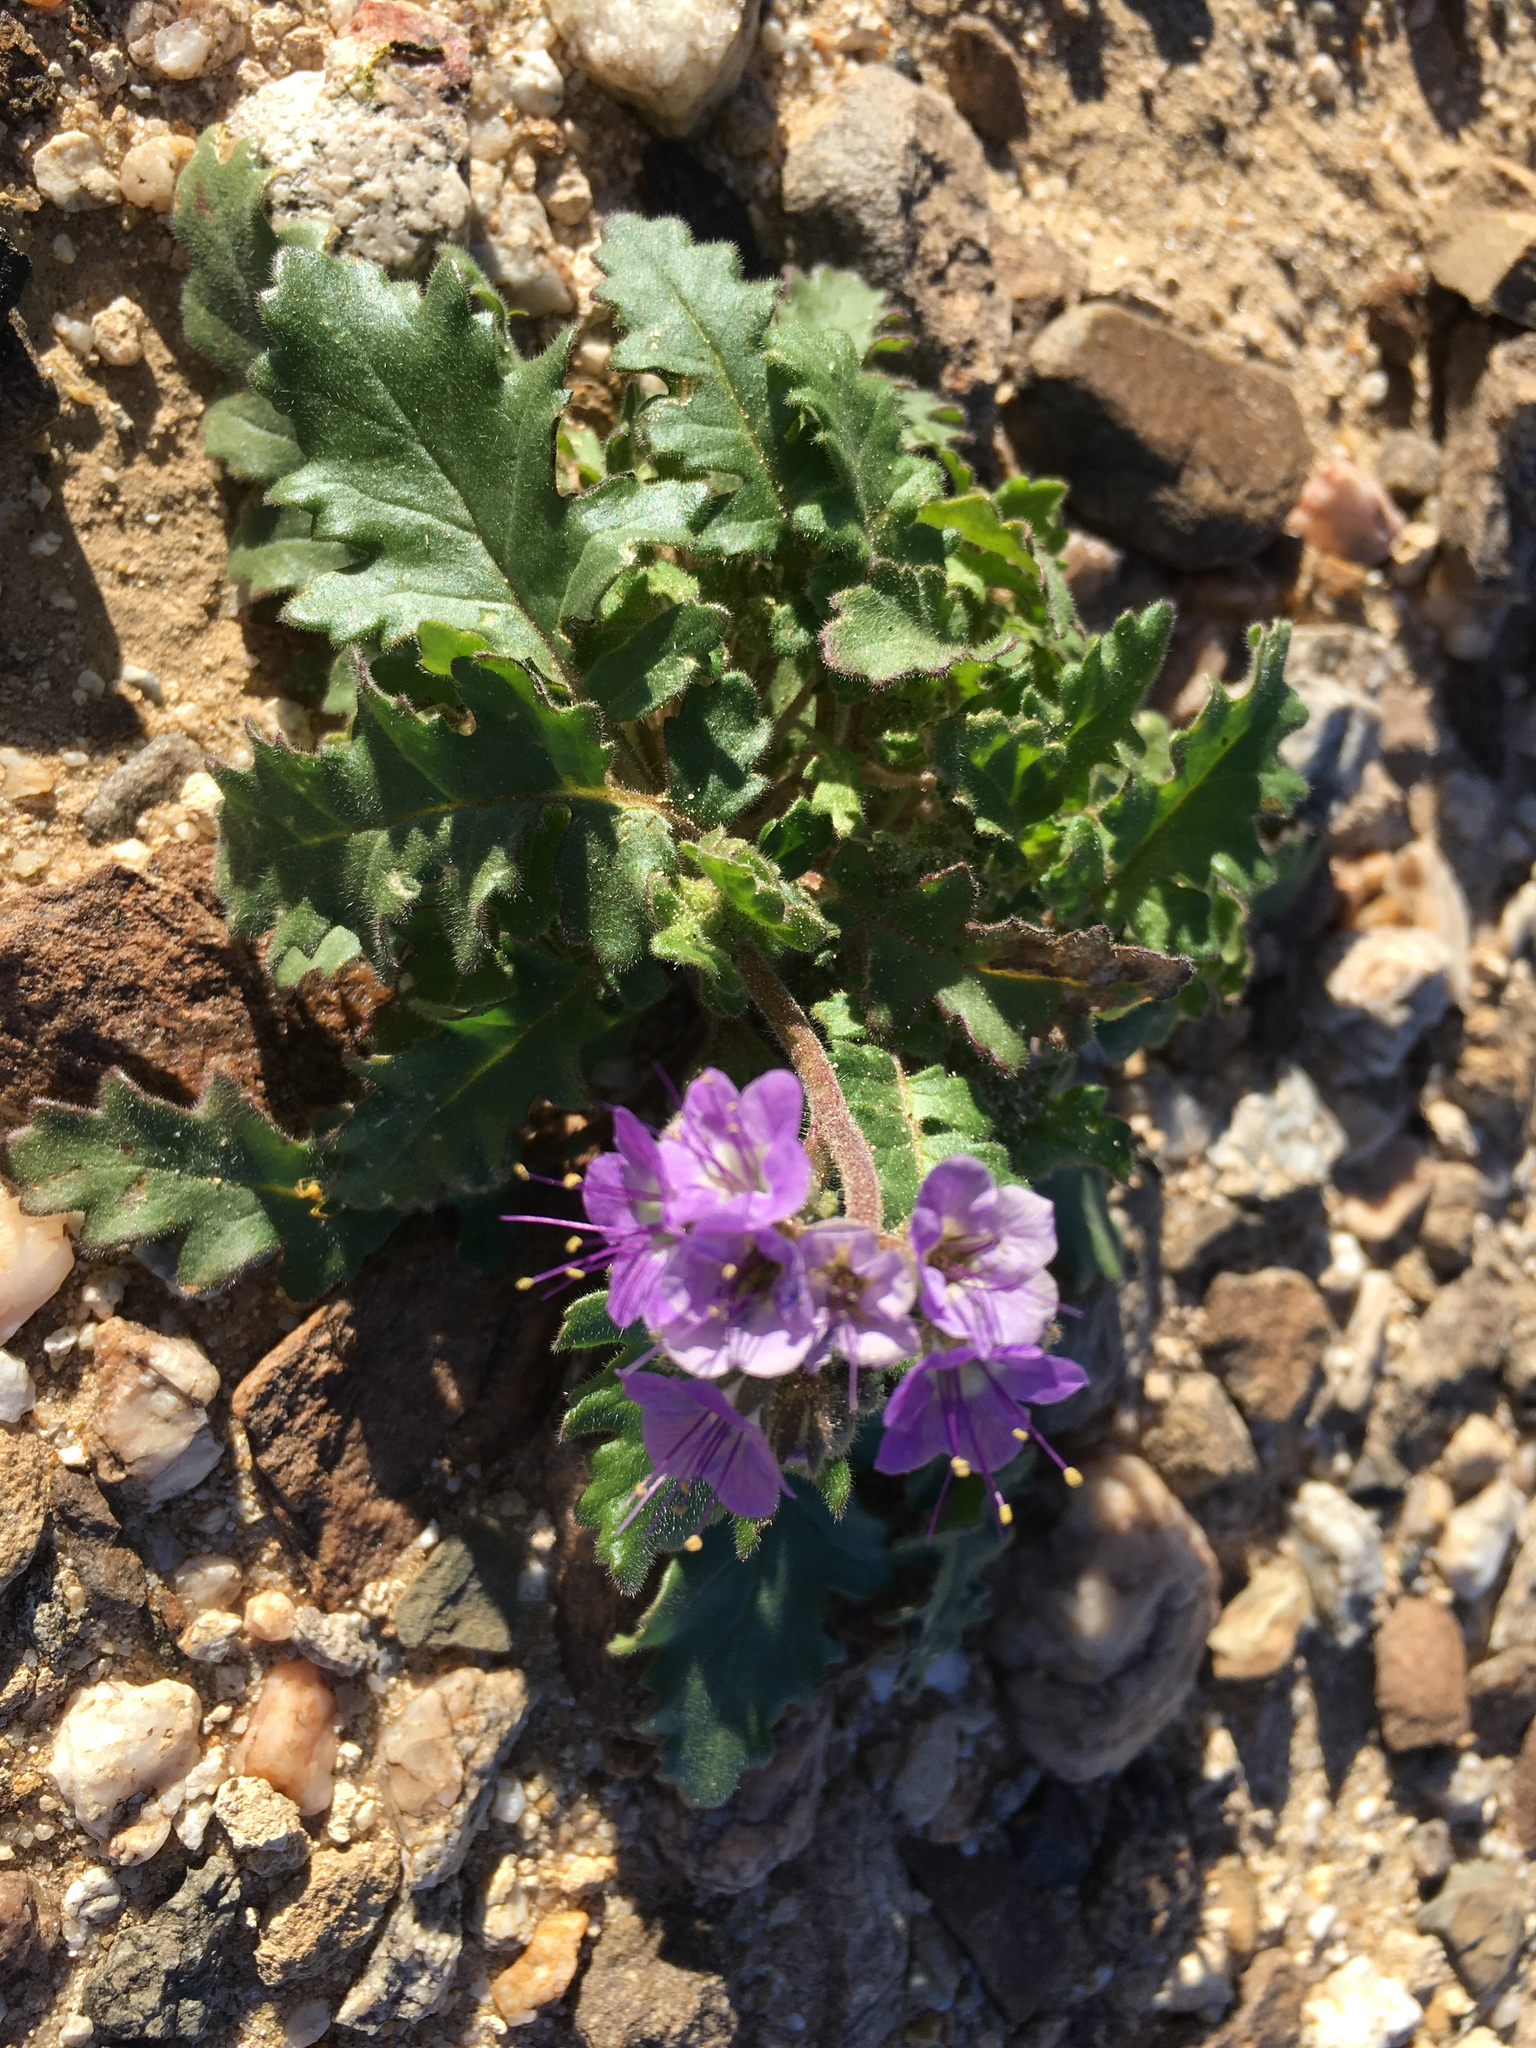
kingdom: Plantae
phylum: Tracheophyta
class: Magnoliopsida
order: Boraginales
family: Hydrophyllaceae
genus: Phacelia
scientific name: Phacelia crenulata
